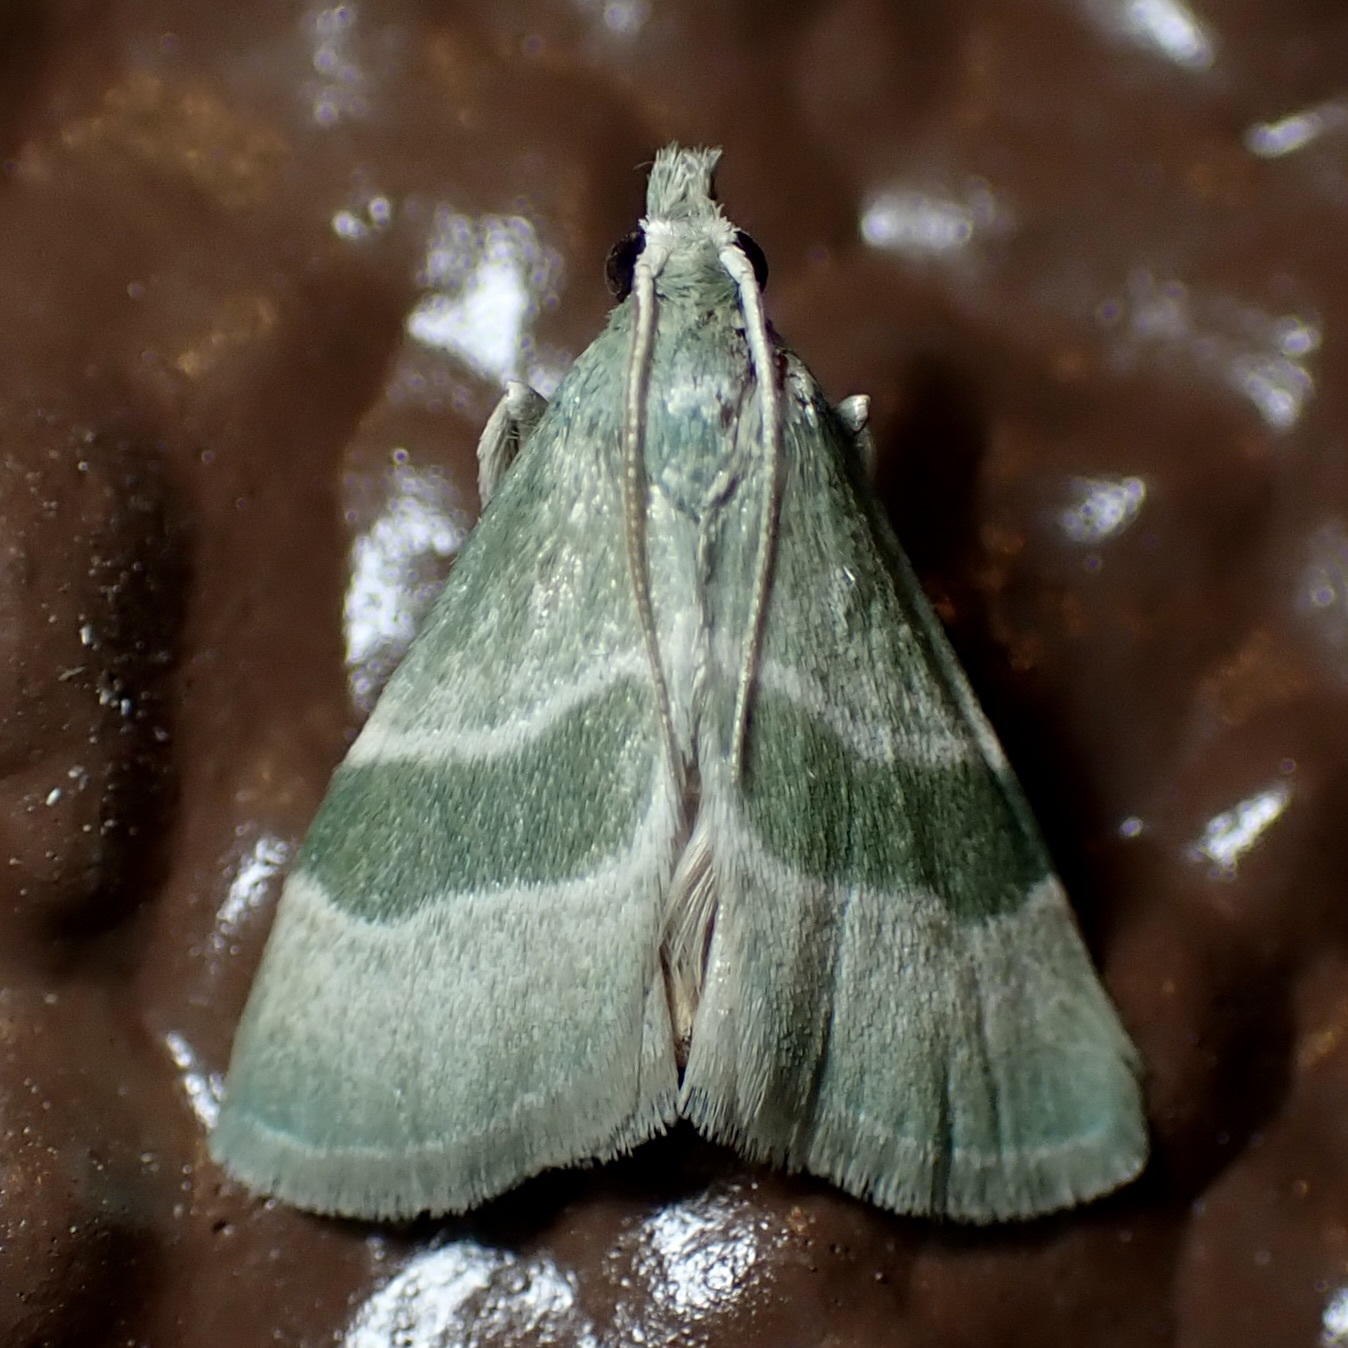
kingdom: Animalia
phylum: Arthropoda
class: Insecta
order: Lepidoptera
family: Pyralidae
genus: Anemosella
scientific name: Anemosella viridalis
